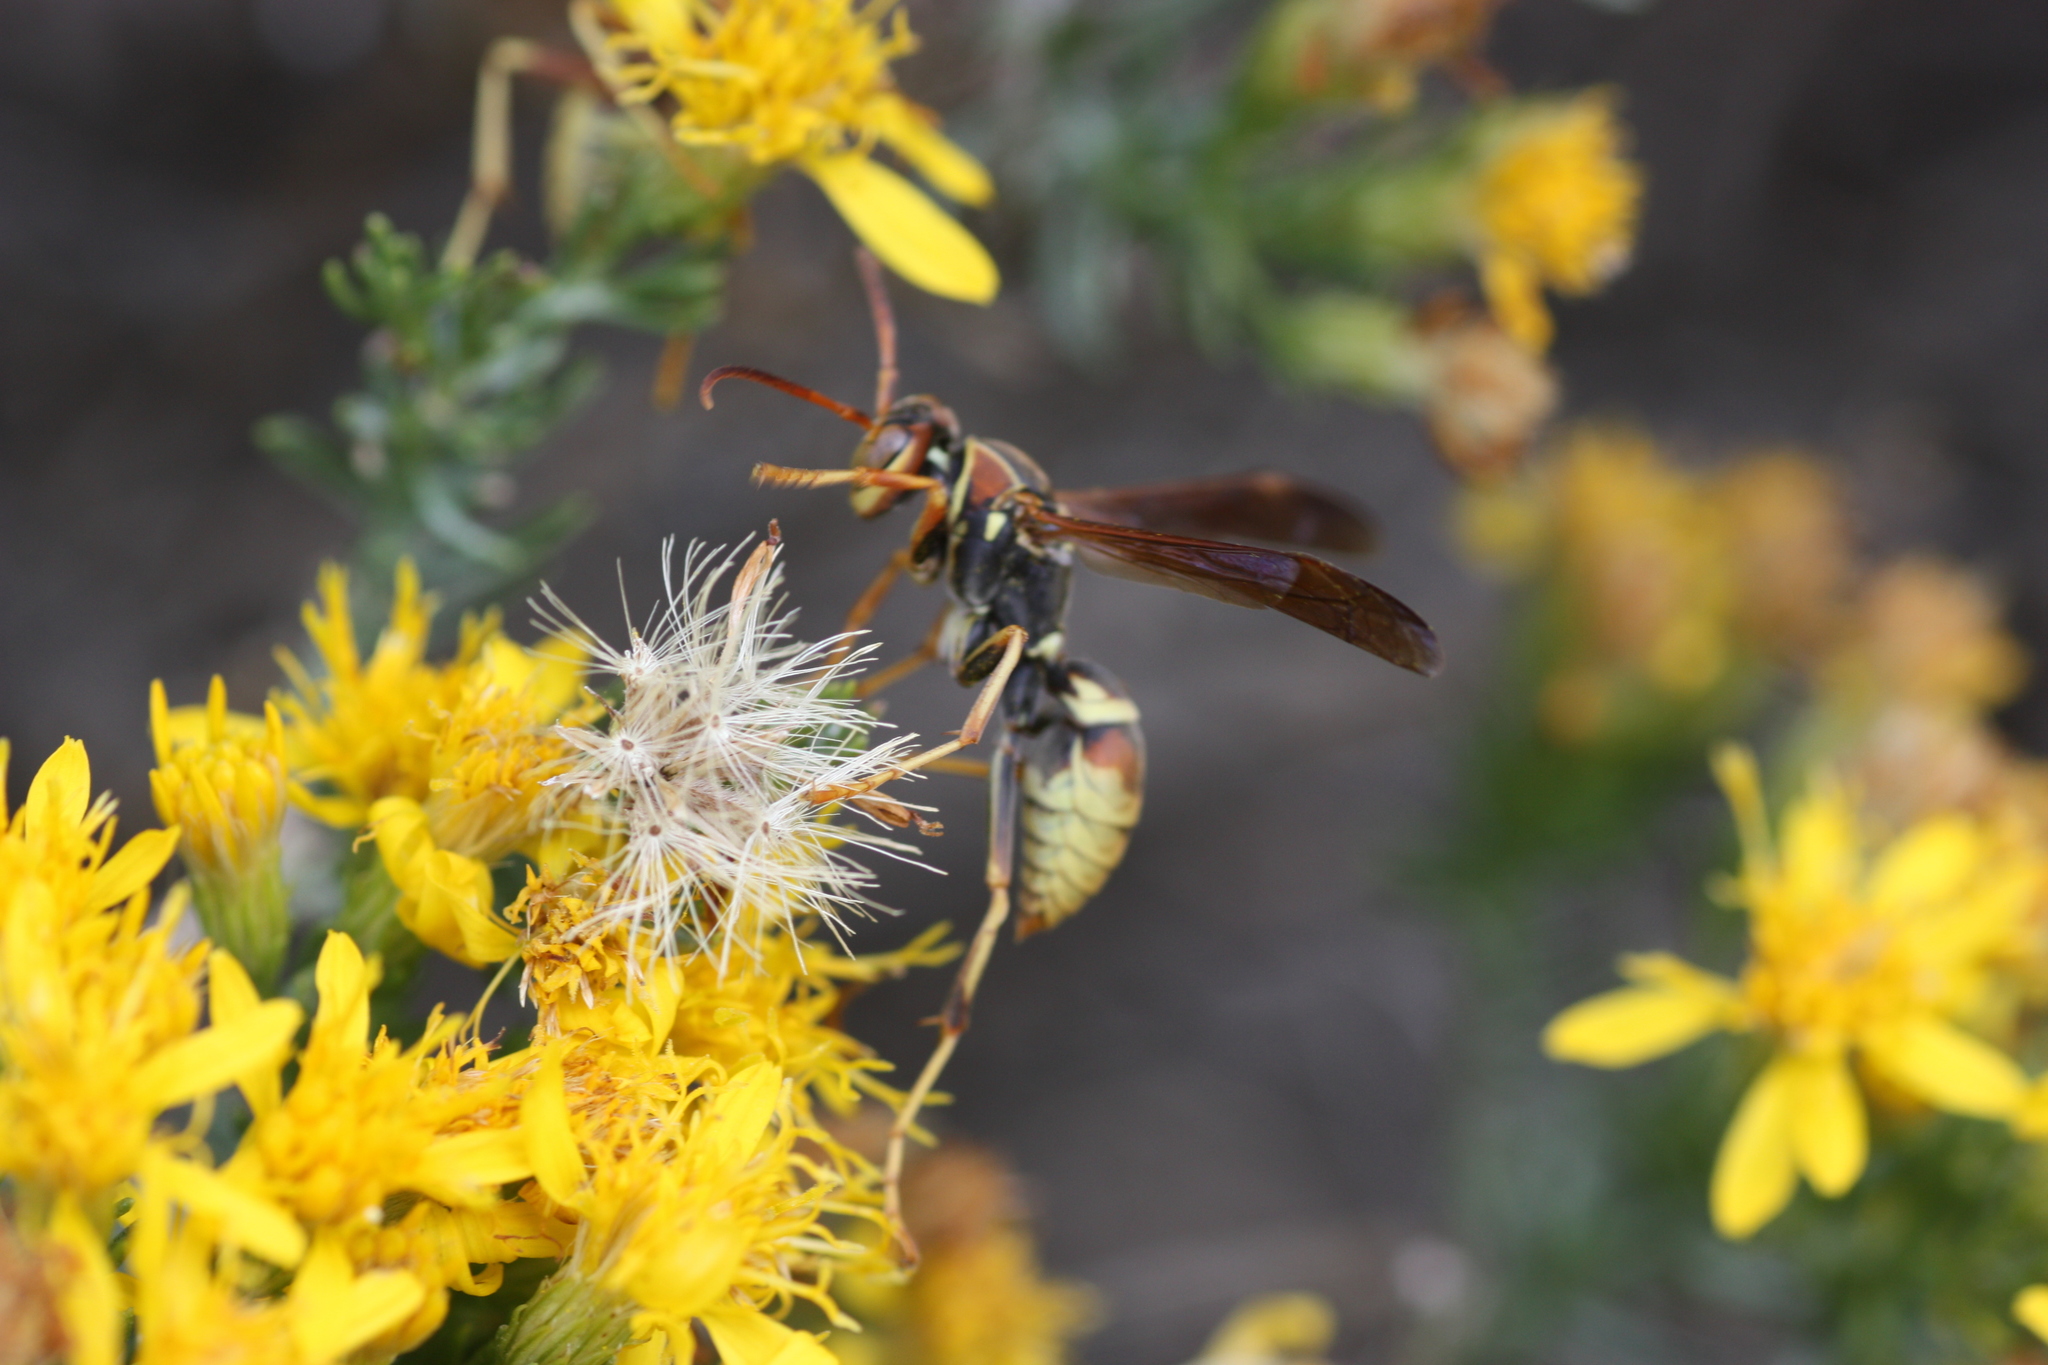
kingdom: Animalia
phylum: Arthropoda
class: Insecta
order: Hymenoptera
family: Eumenidae
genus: Polistes
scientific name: Polistes dorsalis
